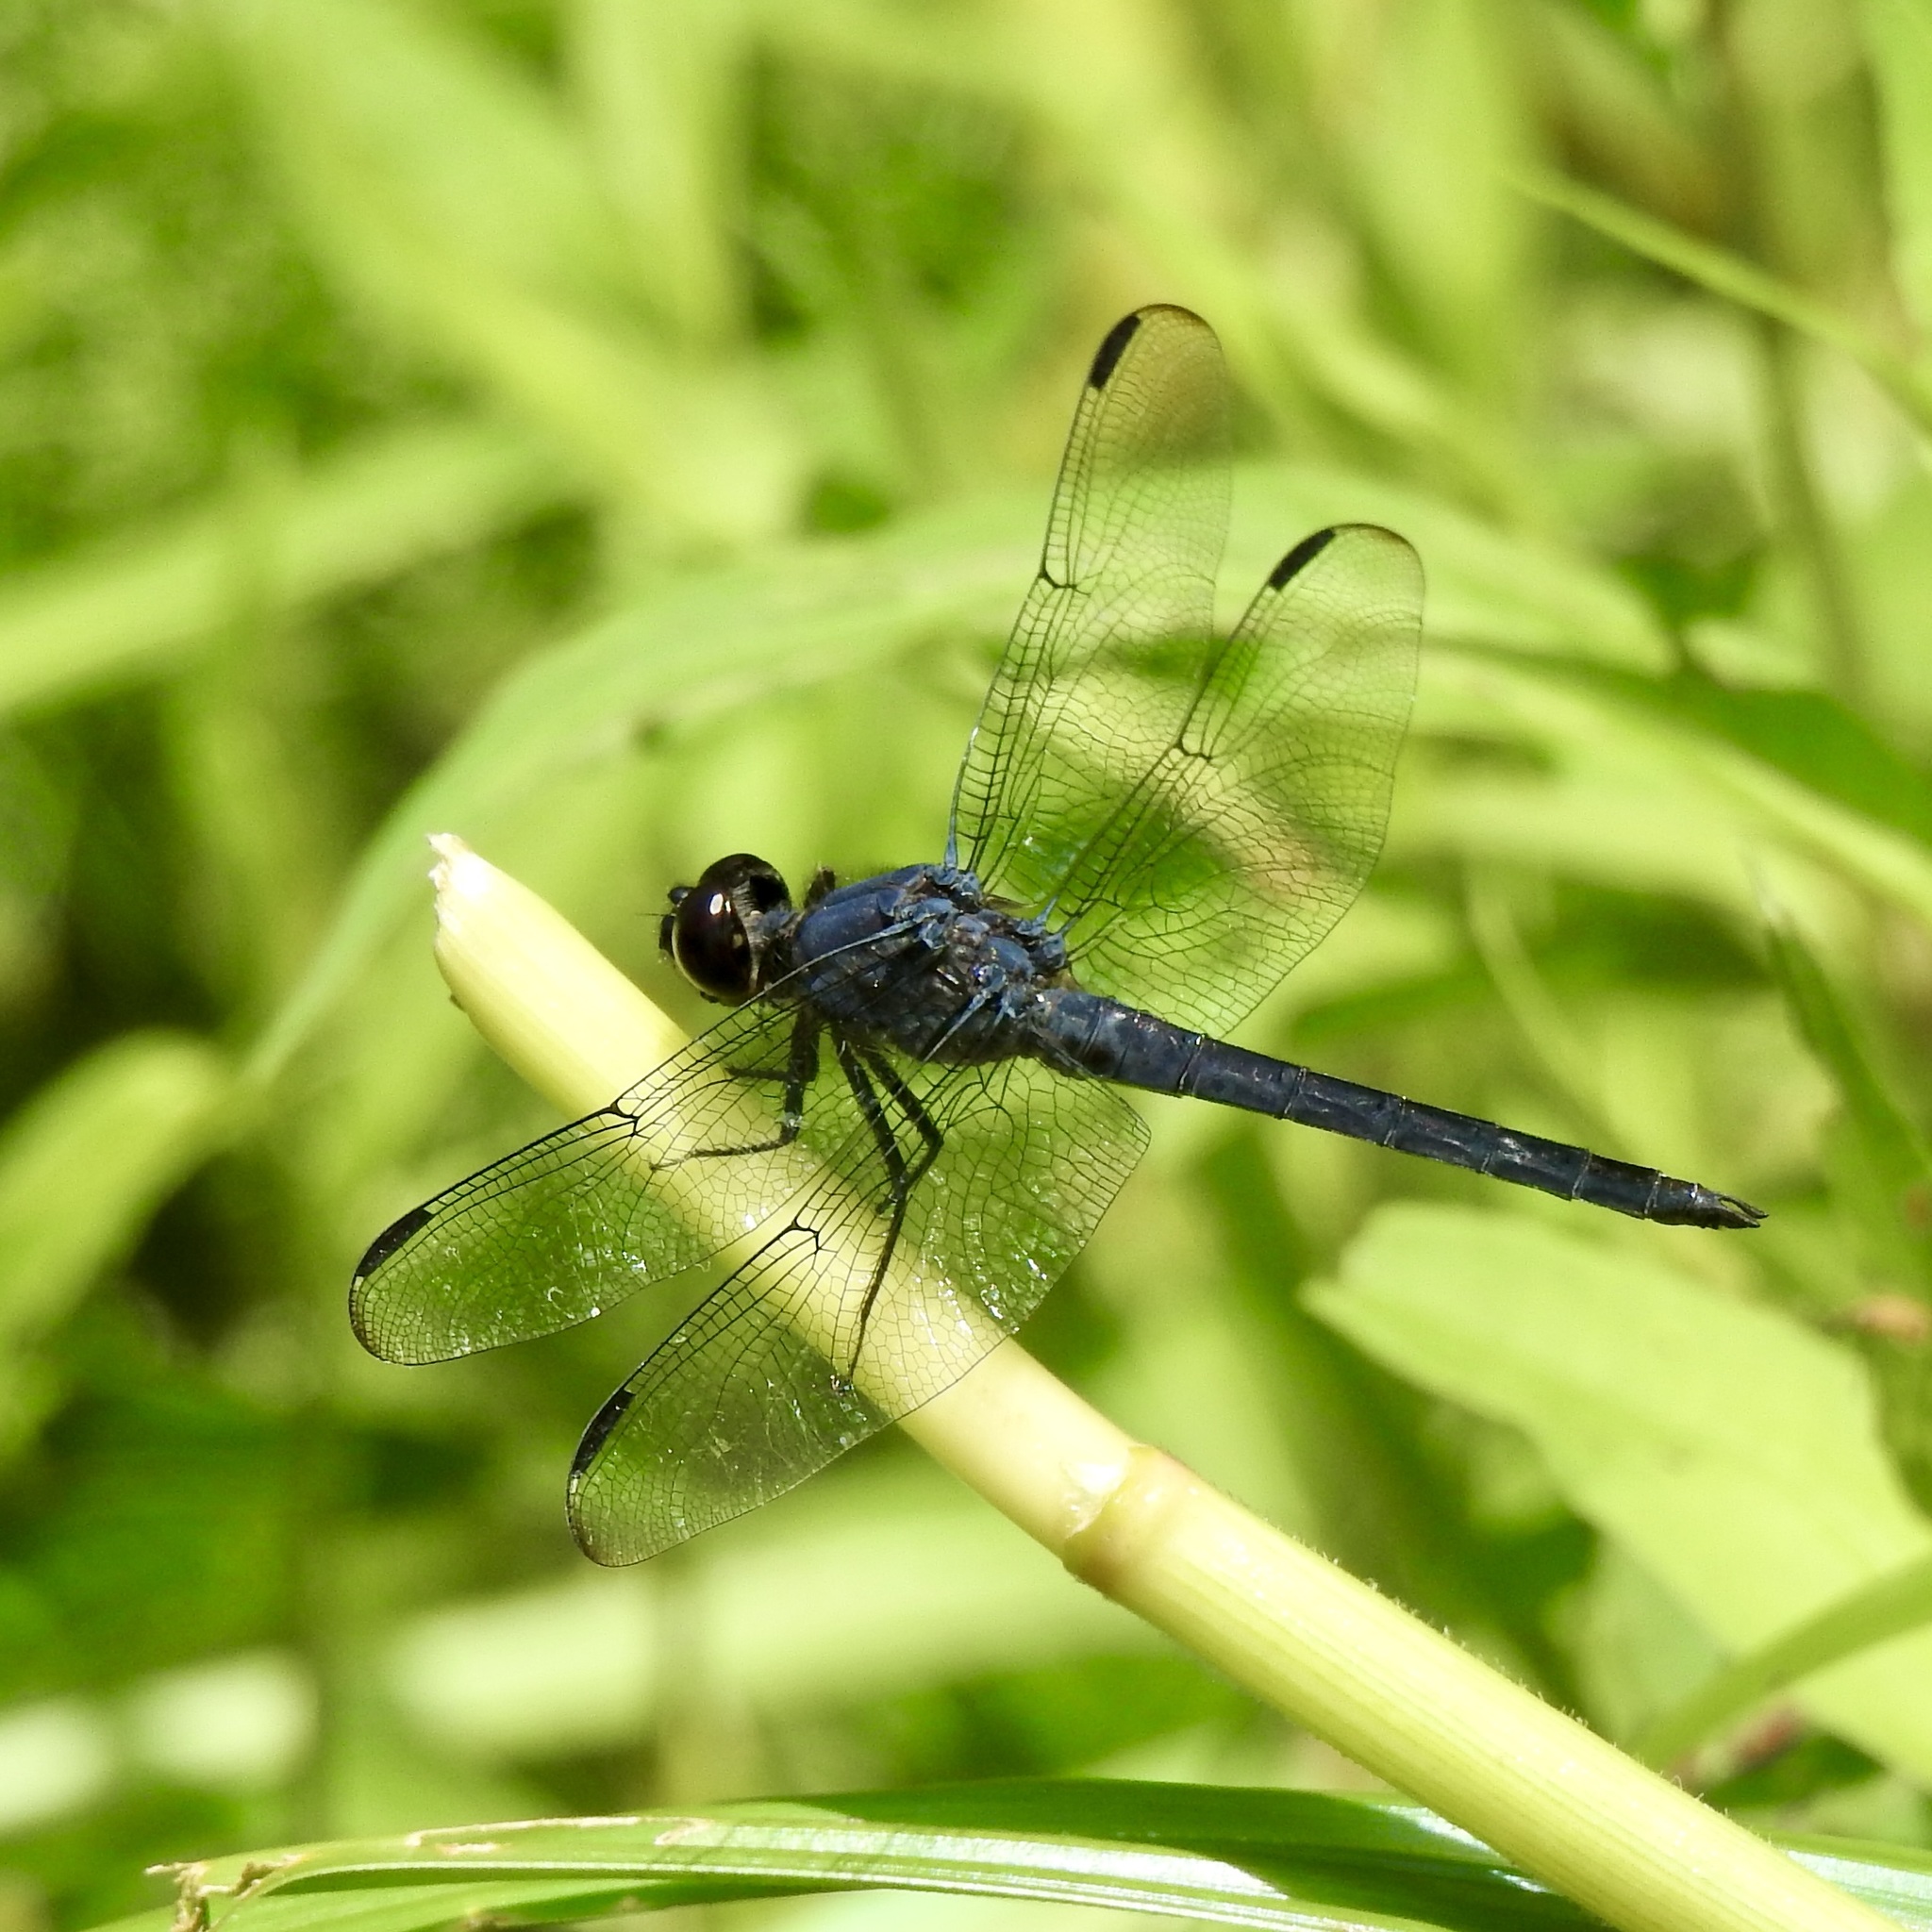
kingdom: Animalia
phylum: Arthropoda
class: Insecta
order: Odonata
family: Libellulidae
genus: Libellula
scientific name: Libellula incesta
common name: Slaty skimmer
